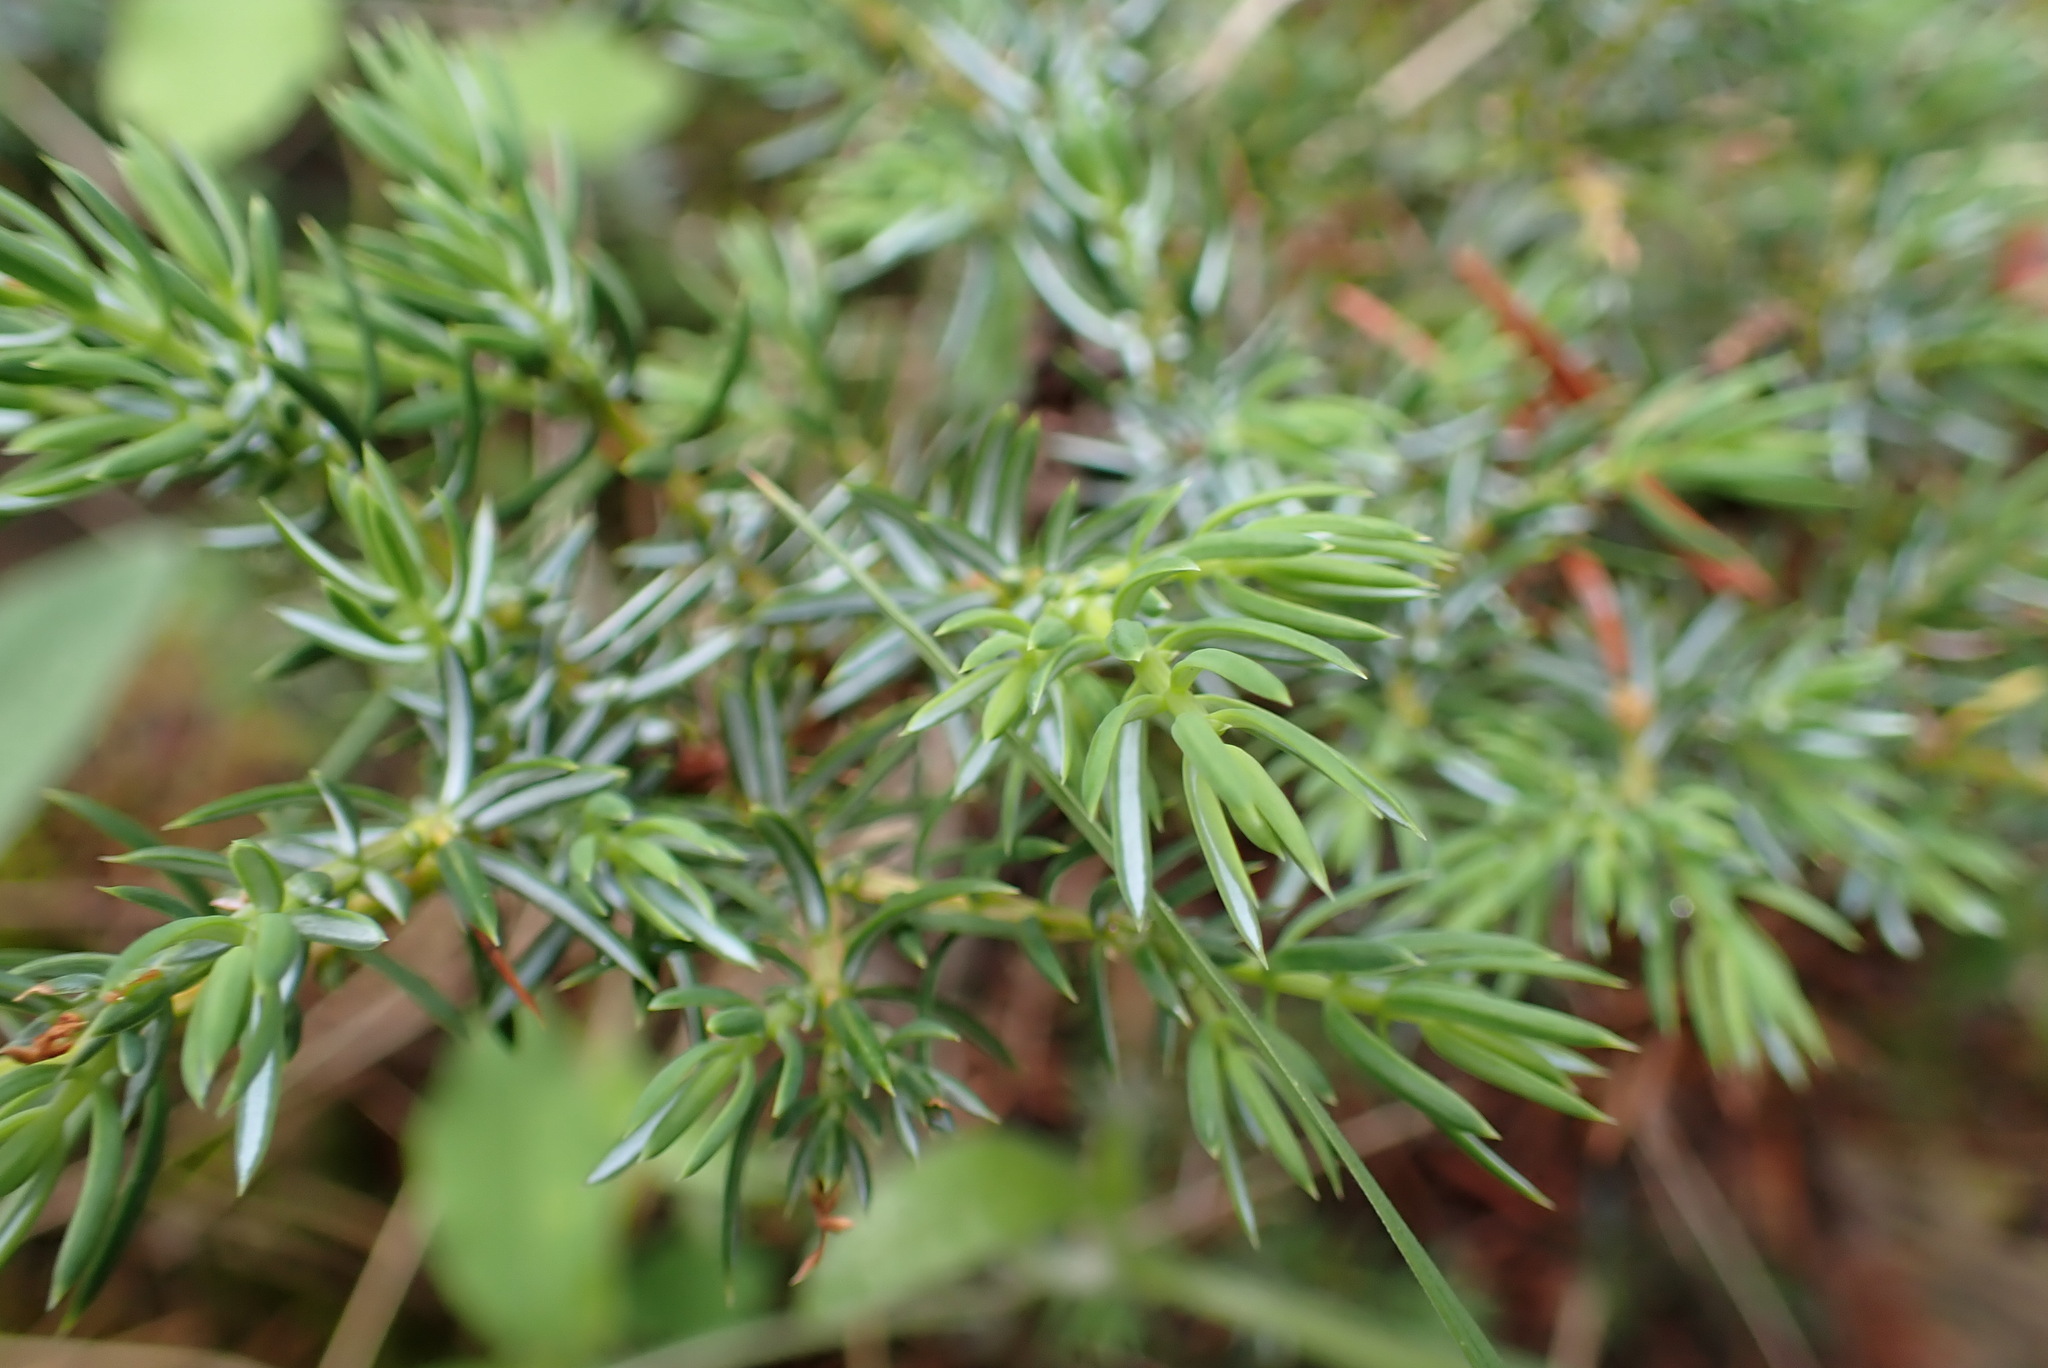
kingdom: Plantae
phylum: Tracheophyta
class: Pinopsida
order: Pinales
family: Cupressaceae
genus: Juniperus
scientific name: Juniperus communis
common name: Common juniper
